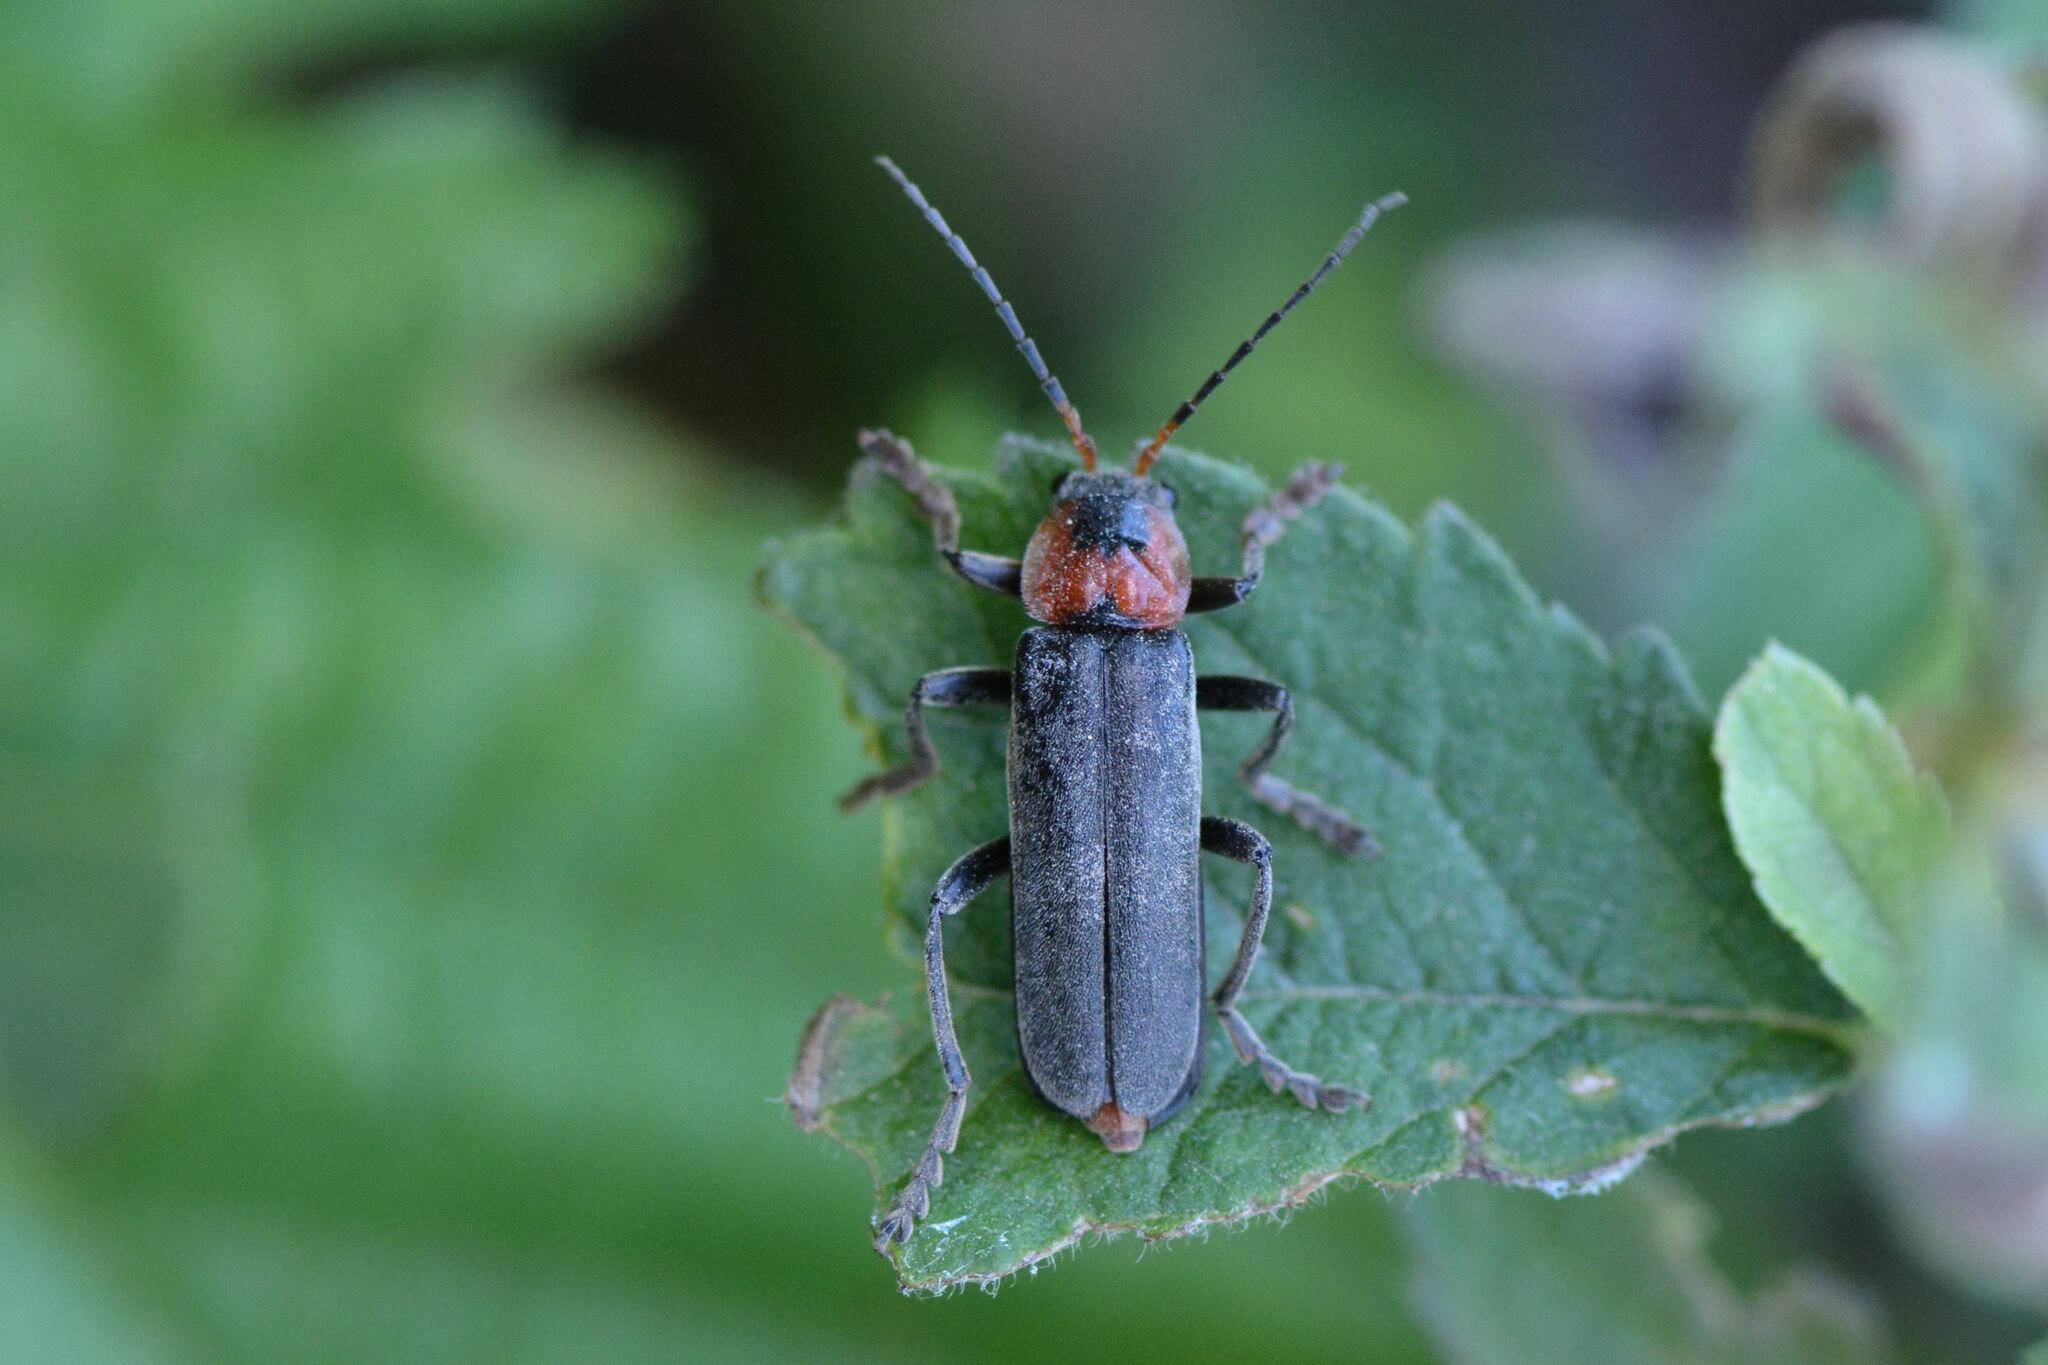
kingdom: Animalia
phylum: Arthropoda
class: Insecta
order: Coleoptera
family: Cantharidae
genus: Cantharis
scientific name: Cantharis fusca
